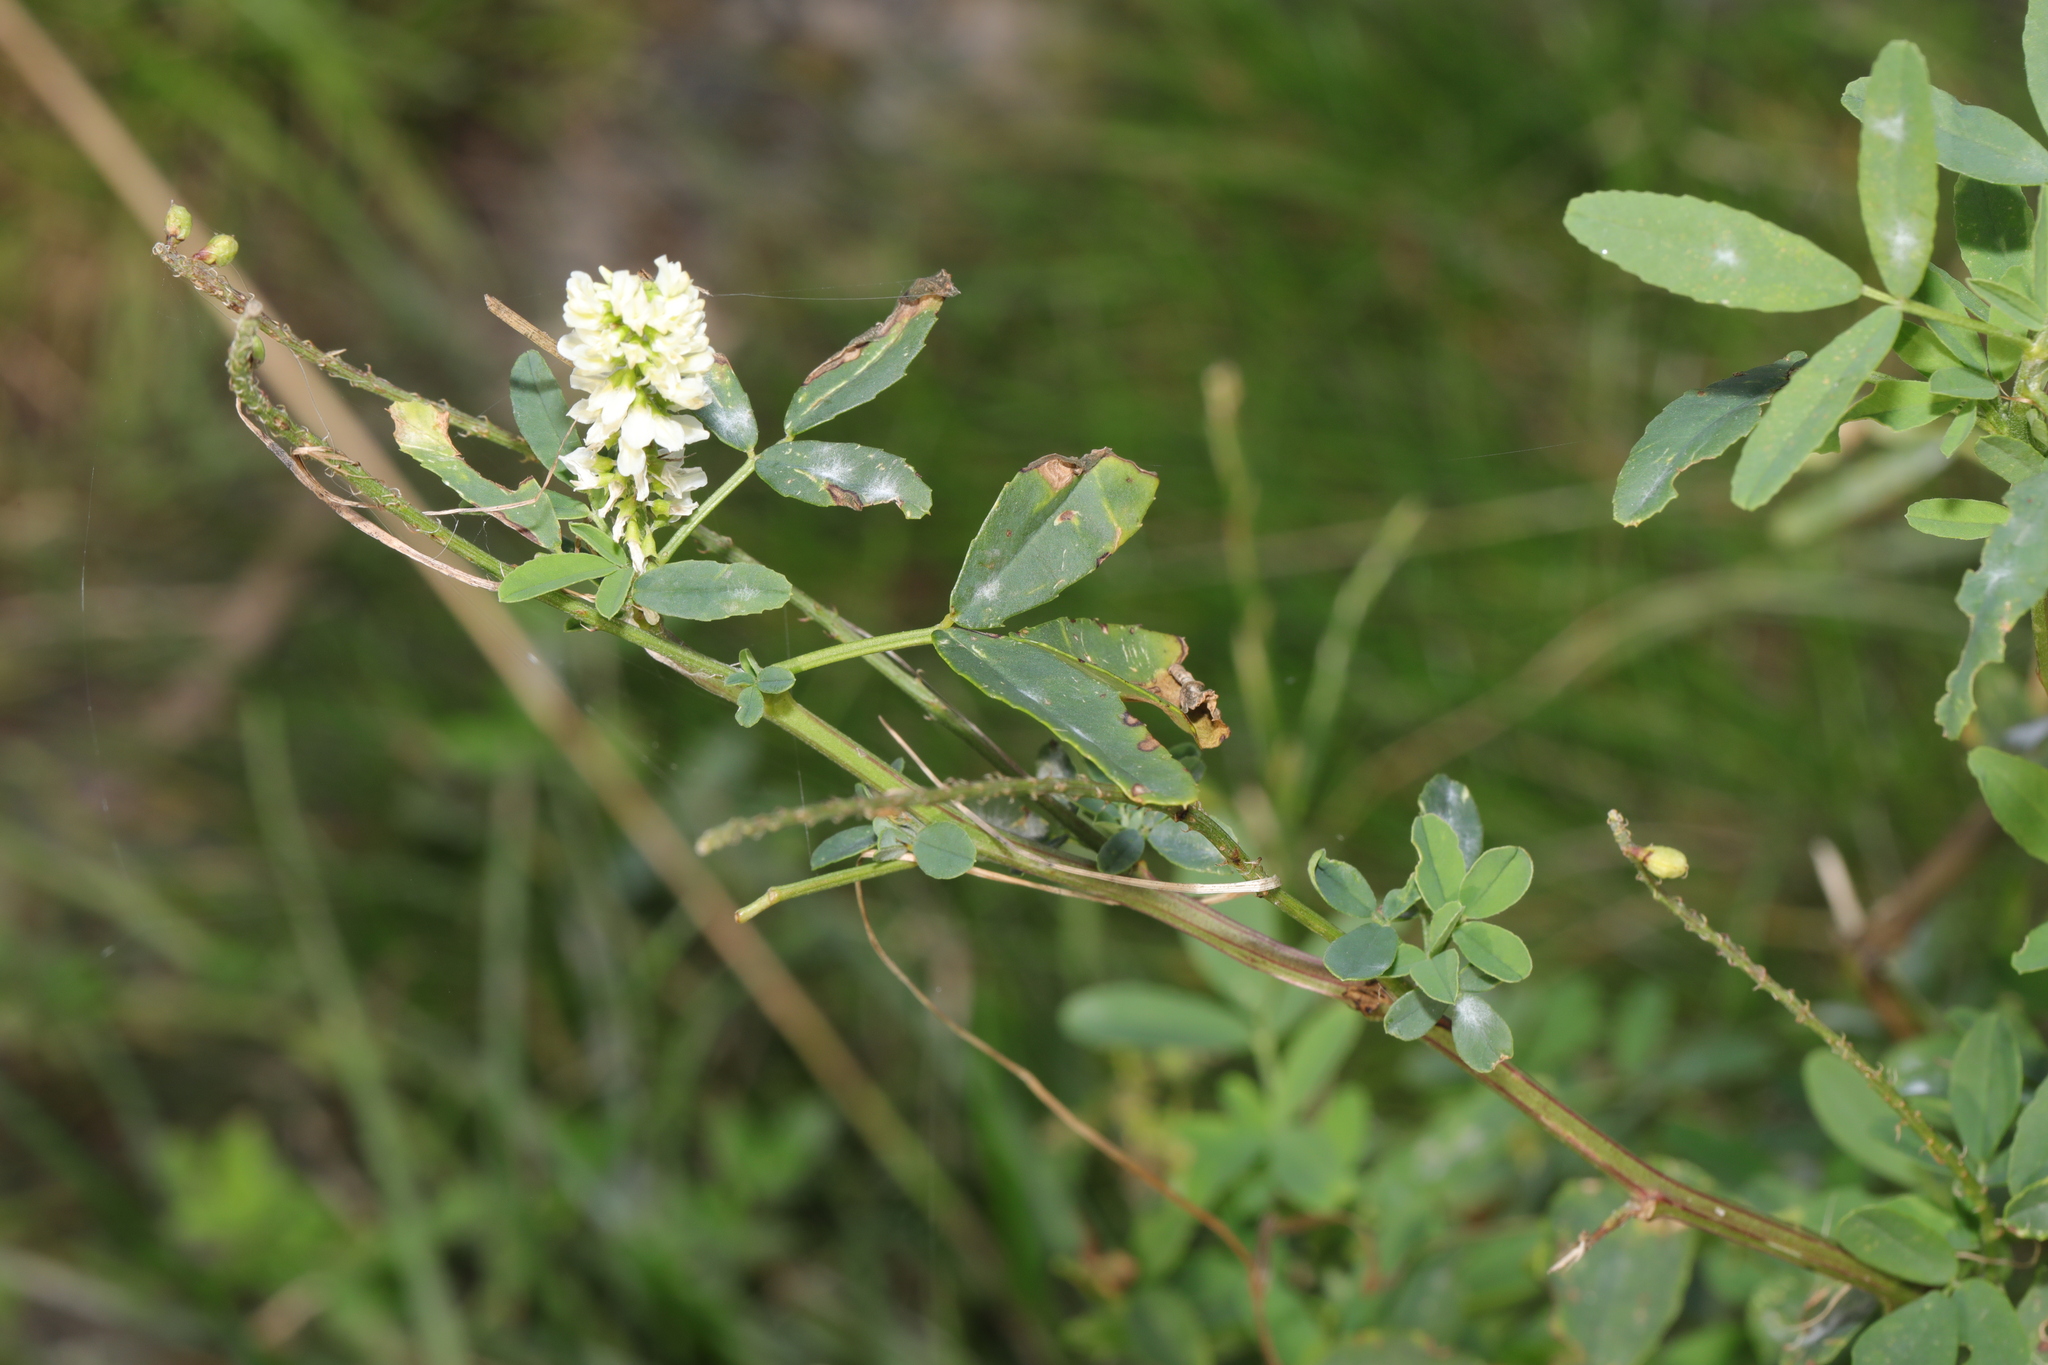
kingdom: Plantae
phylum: Tracheophyta
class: Magnoliopsida
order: Fabales
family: Fabaceae
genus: Melilotus
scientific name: Melilotus albus
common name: White melilot
